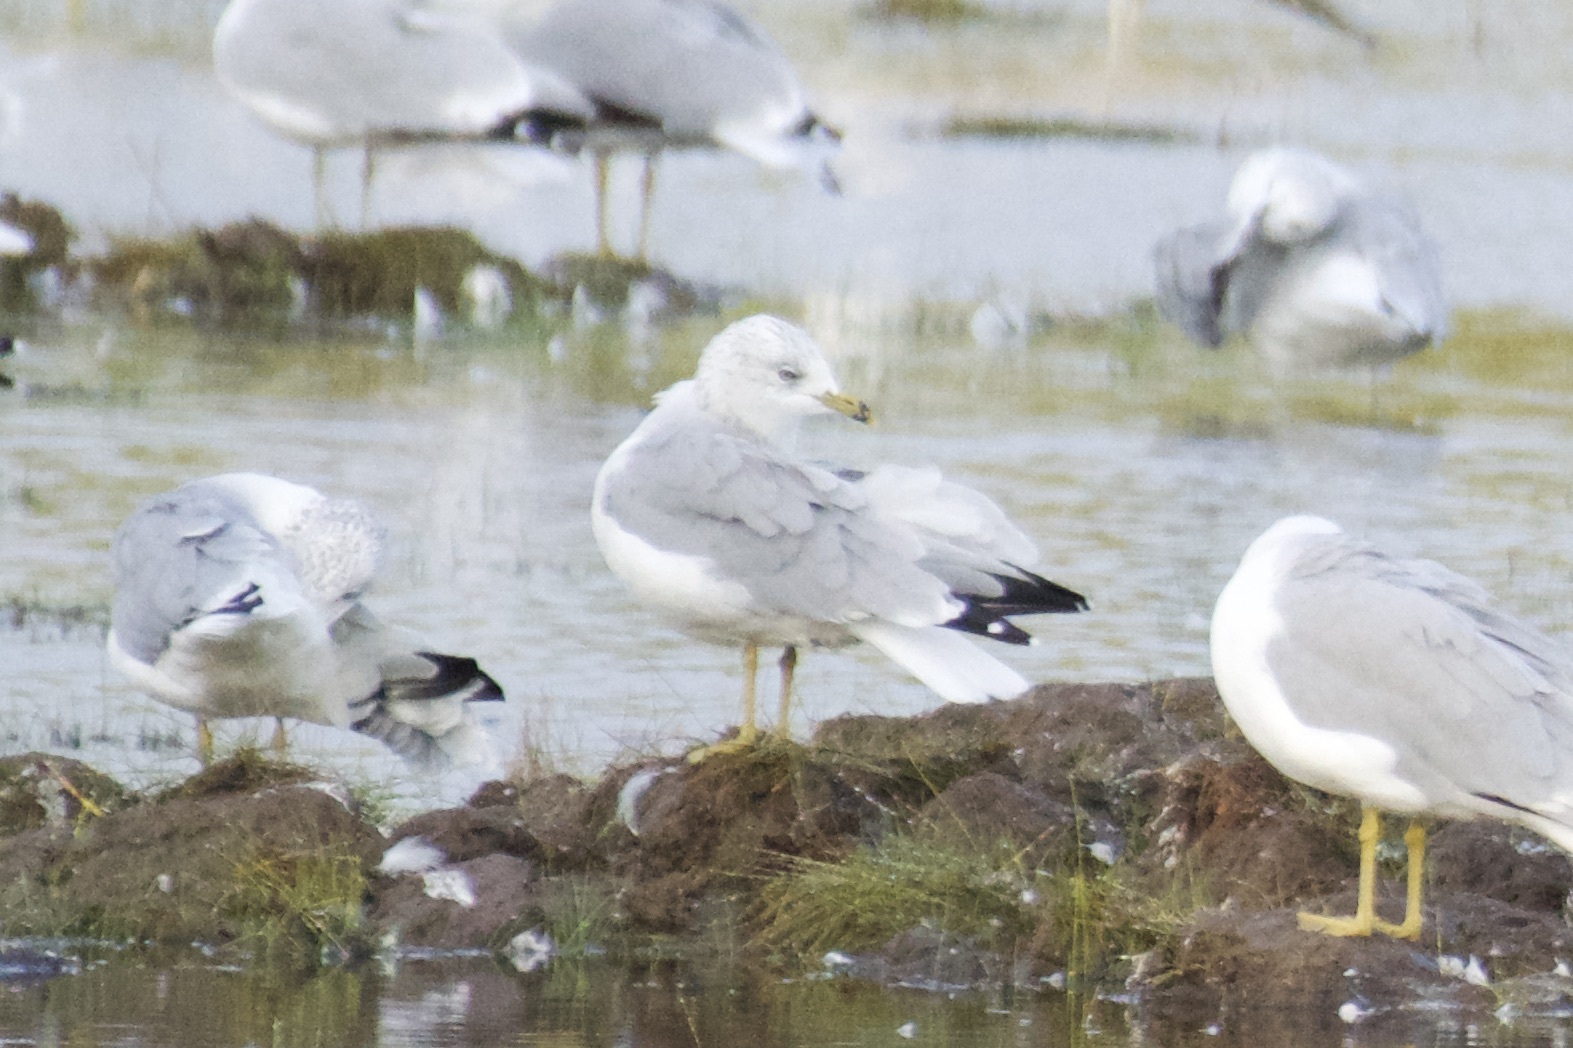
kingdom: Animalia
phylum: Chordata
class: Aves
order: Charadriiformes
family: Laridae
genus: Larus
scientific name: Larus delawarensis
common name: Ring-billed gull
